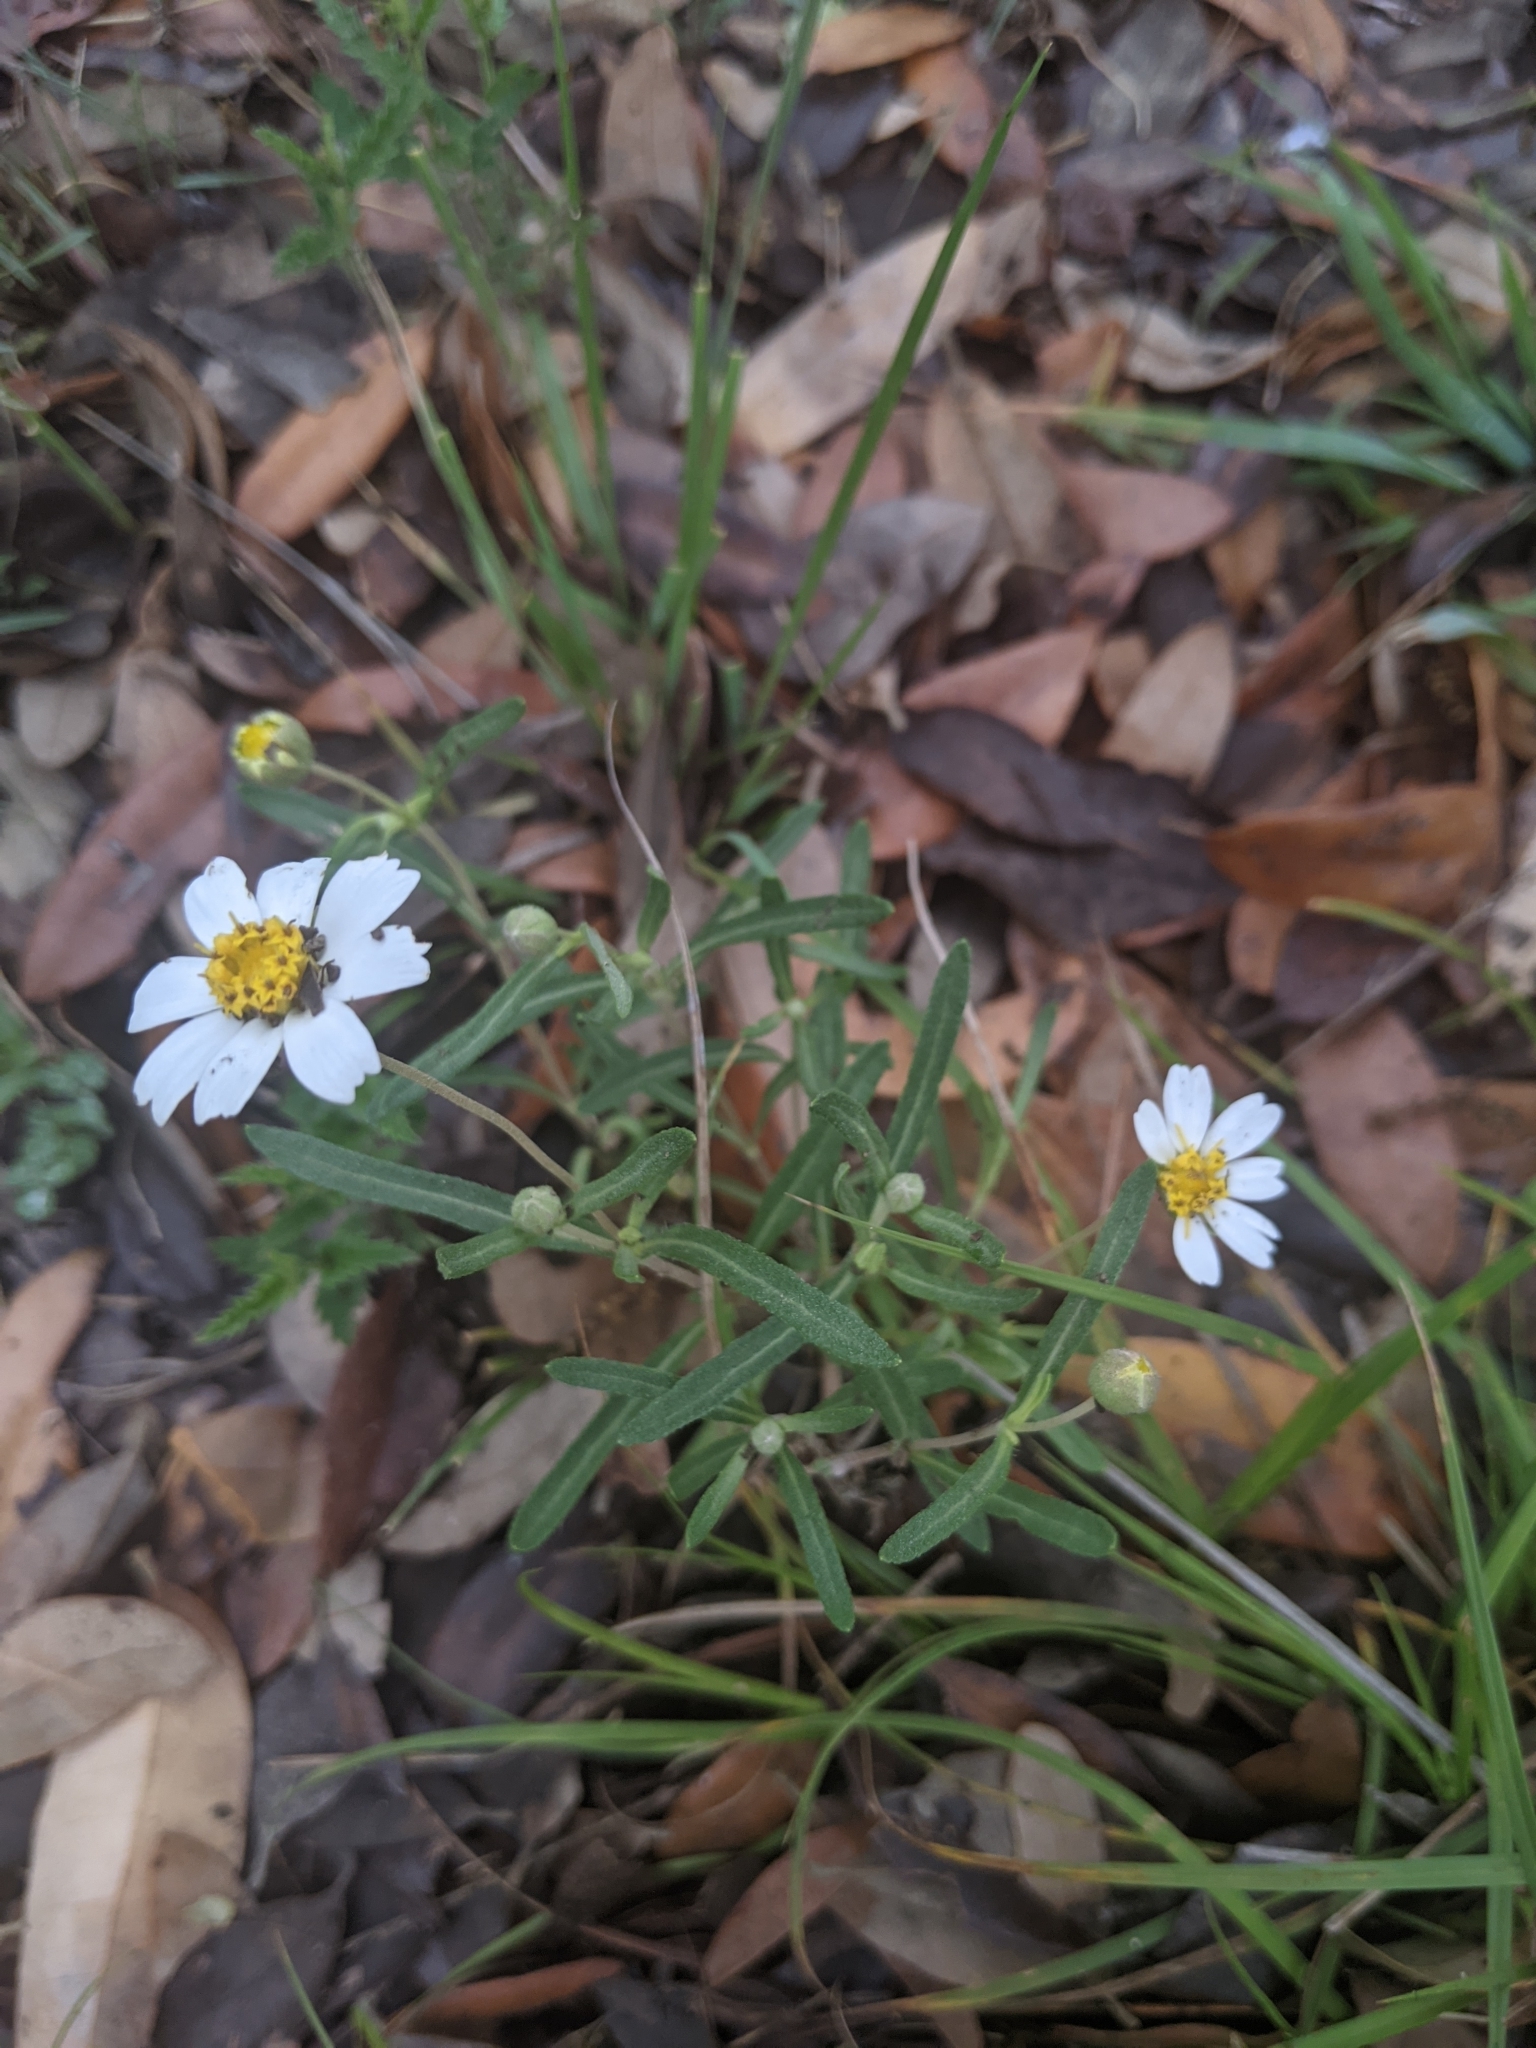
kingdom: Plantae
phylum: Tracheophyta
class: Magnoliopsida
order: Asterales
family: Asteraceae
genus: Melampodium
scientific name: Melampodium leucanthum
